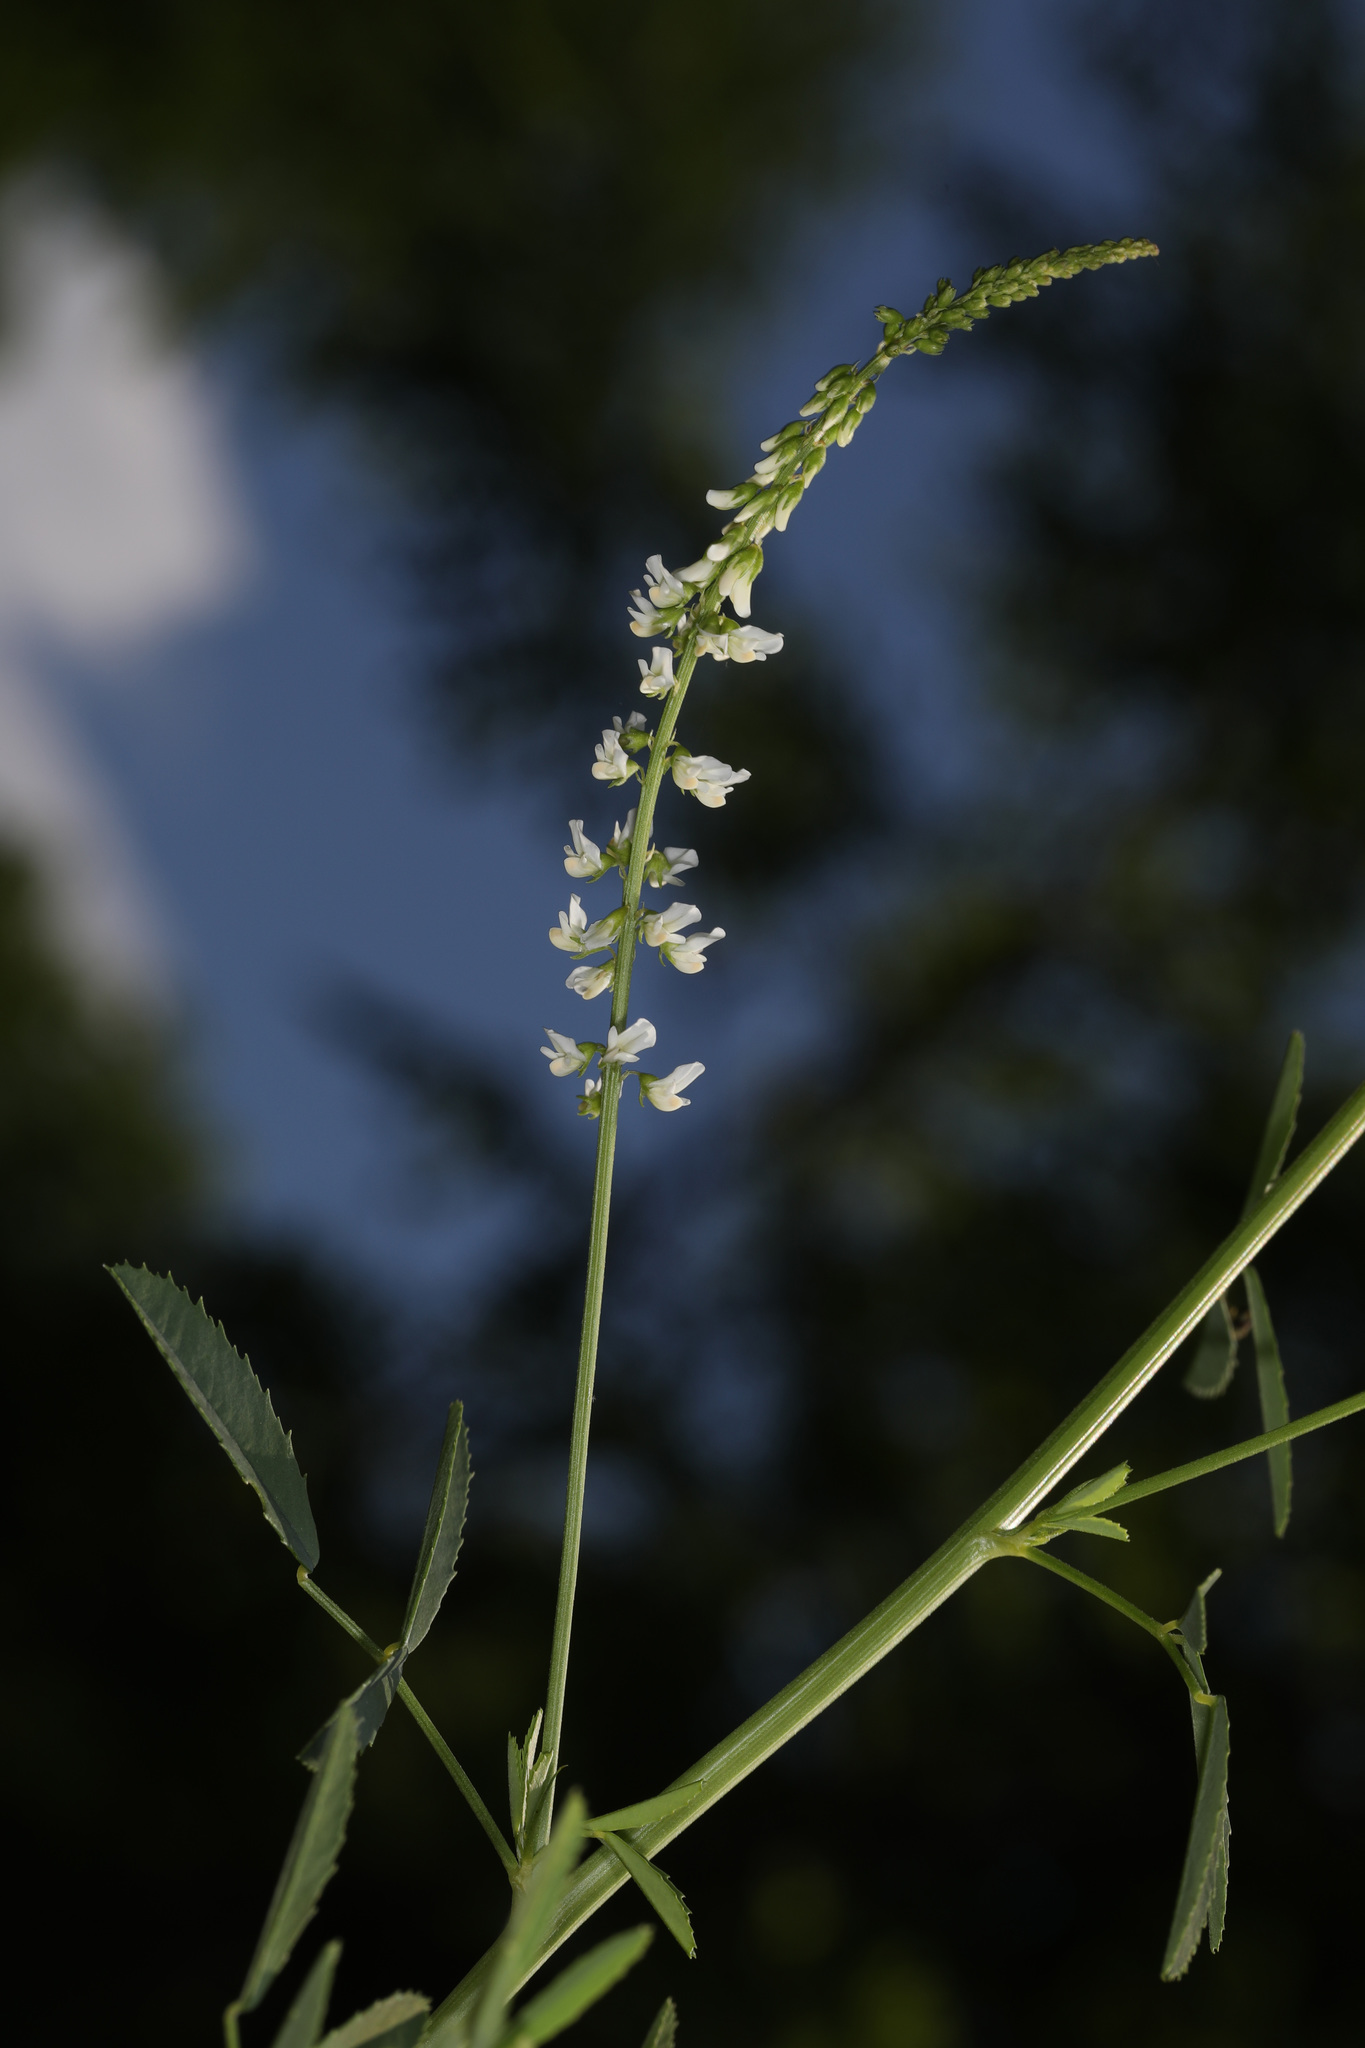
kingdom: Plantae
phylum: Tracheophyta
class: Magnoliopsida
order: Fabales
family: Fabaceae
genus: Melilotus
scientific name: Melilotus albus
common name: White melilot
